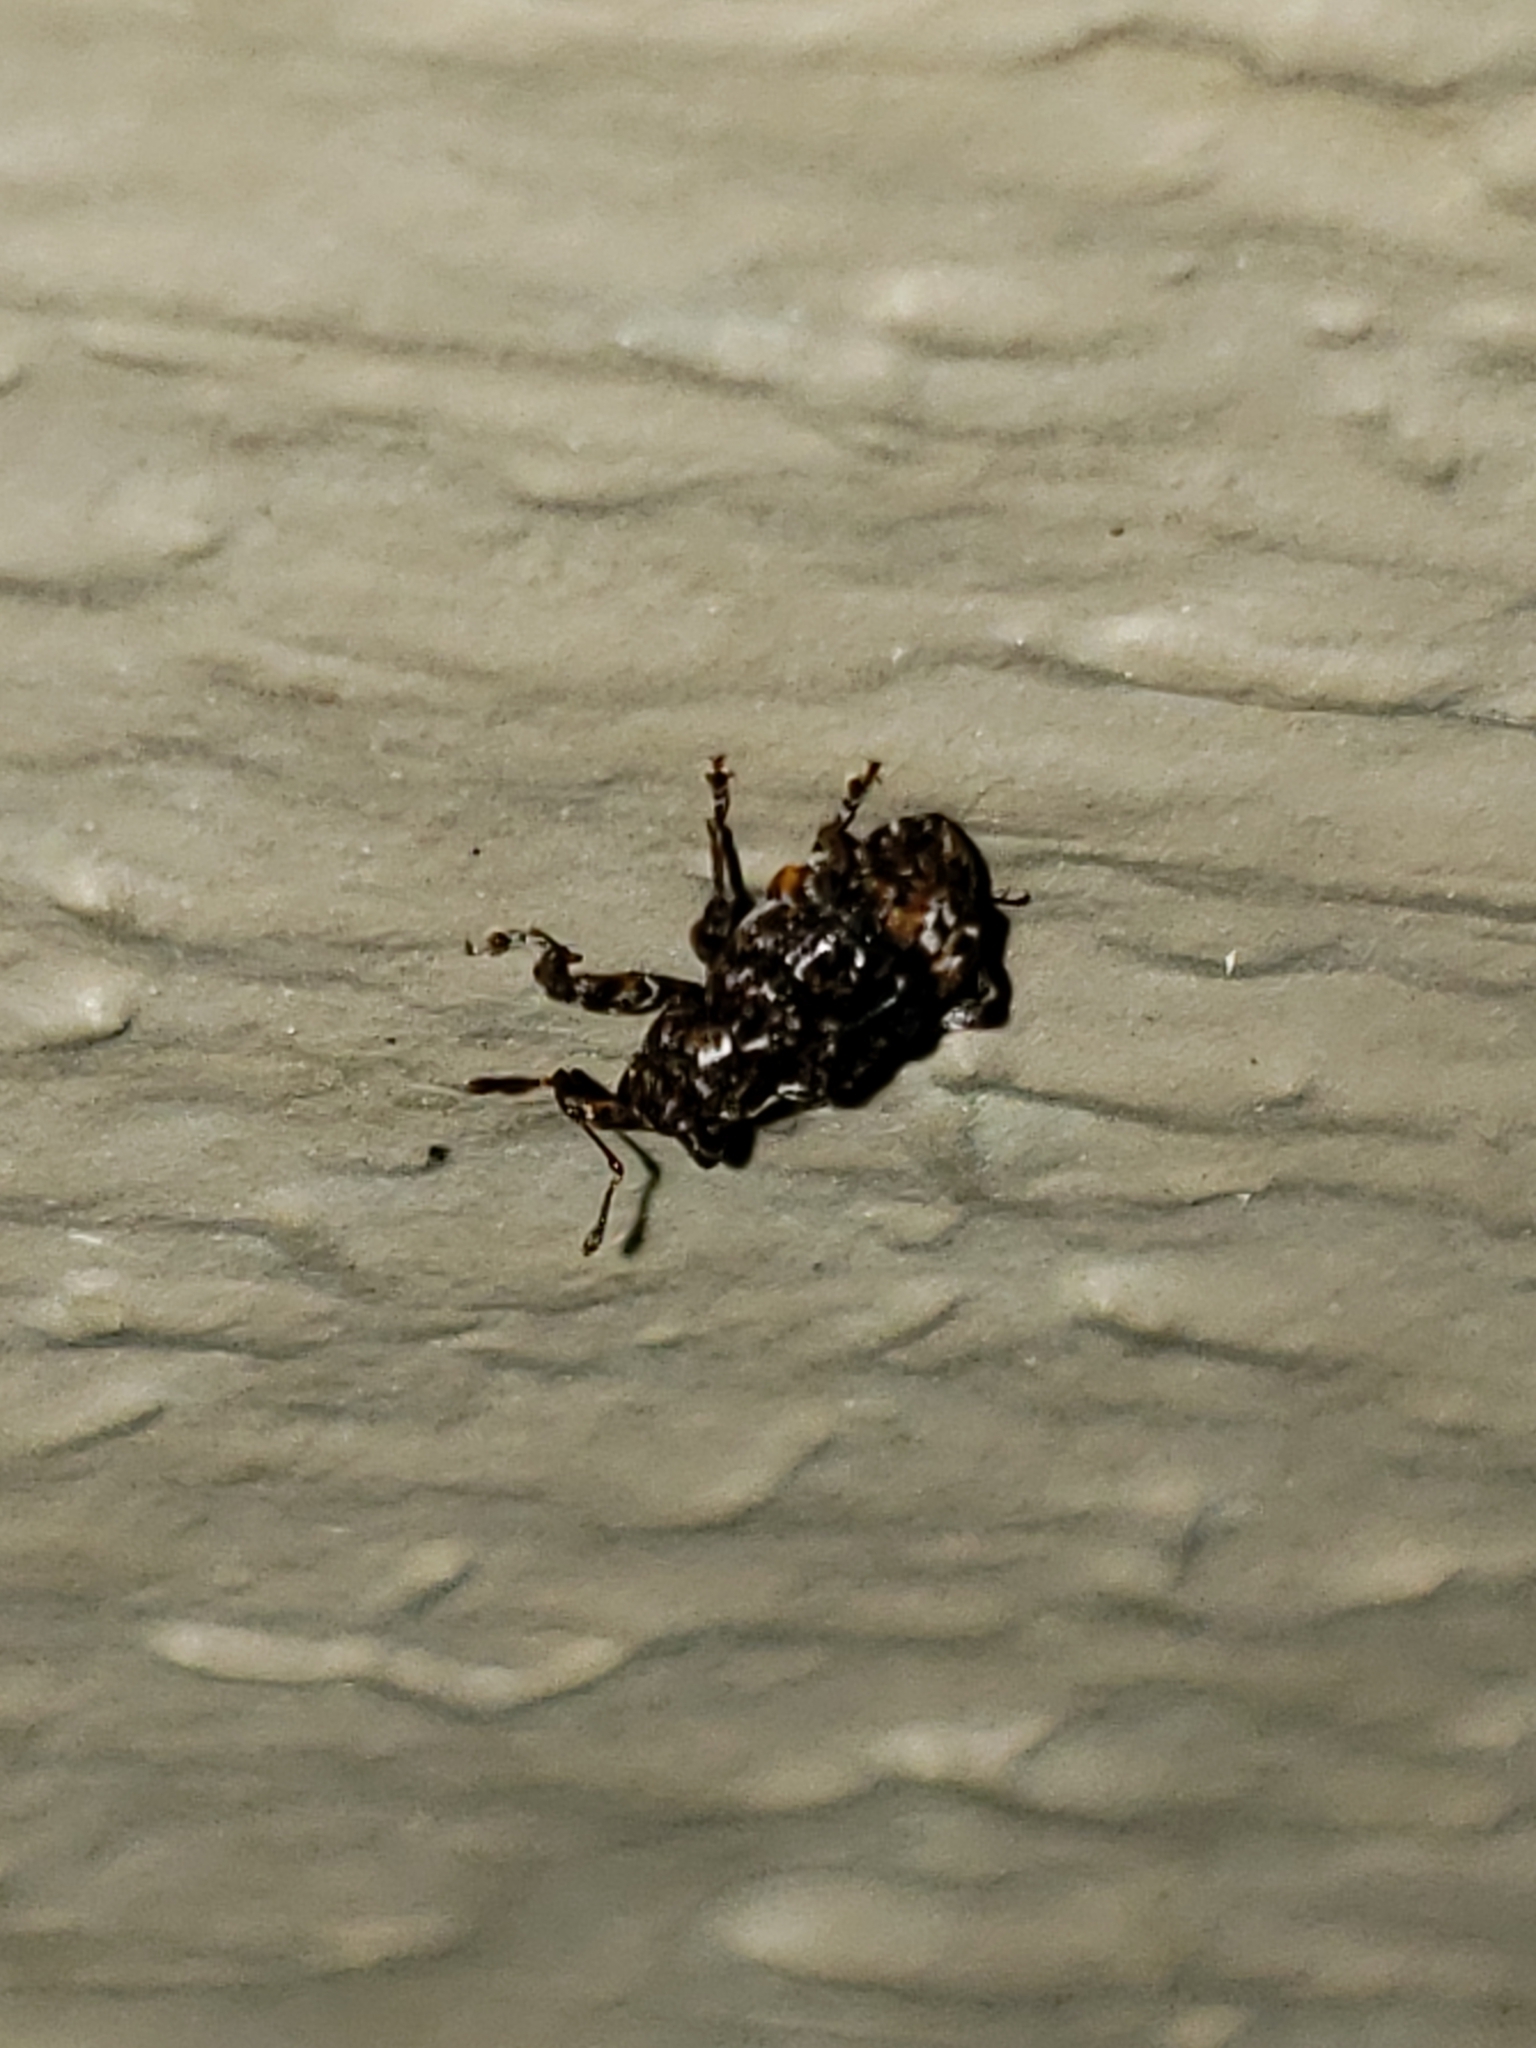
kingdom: Animalia
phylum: Arthropoda
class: Insecta
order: Coleoptera
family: Curculionidae
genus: Conotrachelus
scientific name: Conotrachelus nenuphar
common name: Plum curculio
